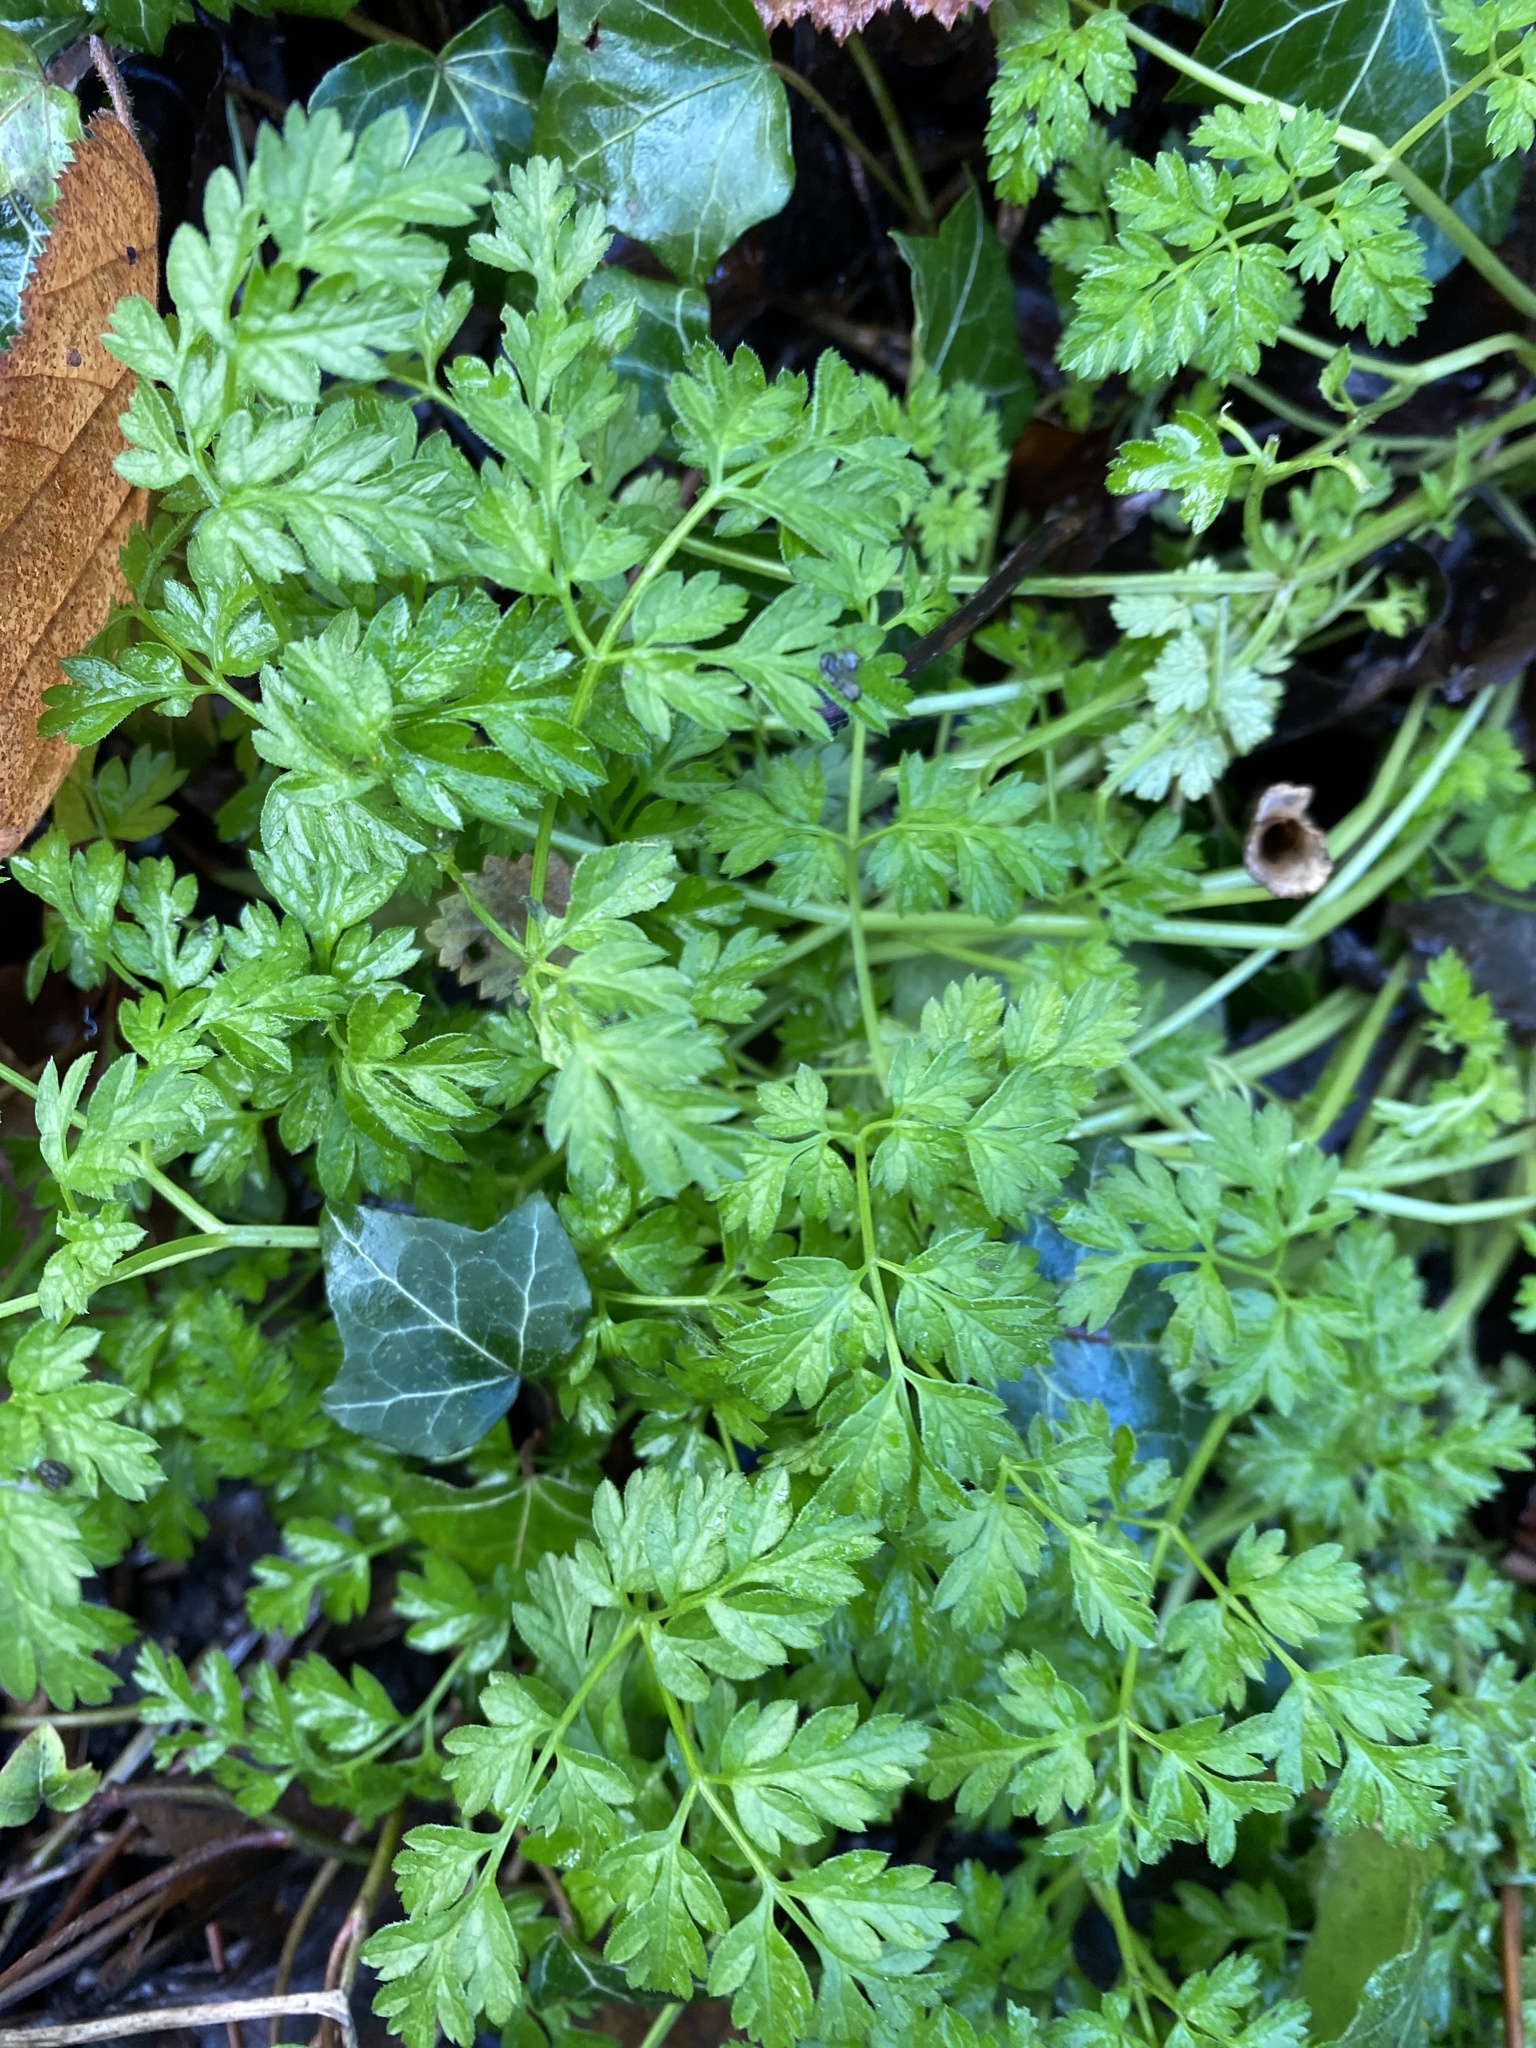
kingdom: Plantae
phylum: Tracheophyta
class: Magnoliopsida
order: Apiales
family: Apiaceae
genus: Anthriscus
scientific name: Anthriscus sylvestris
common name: Cow parsley
